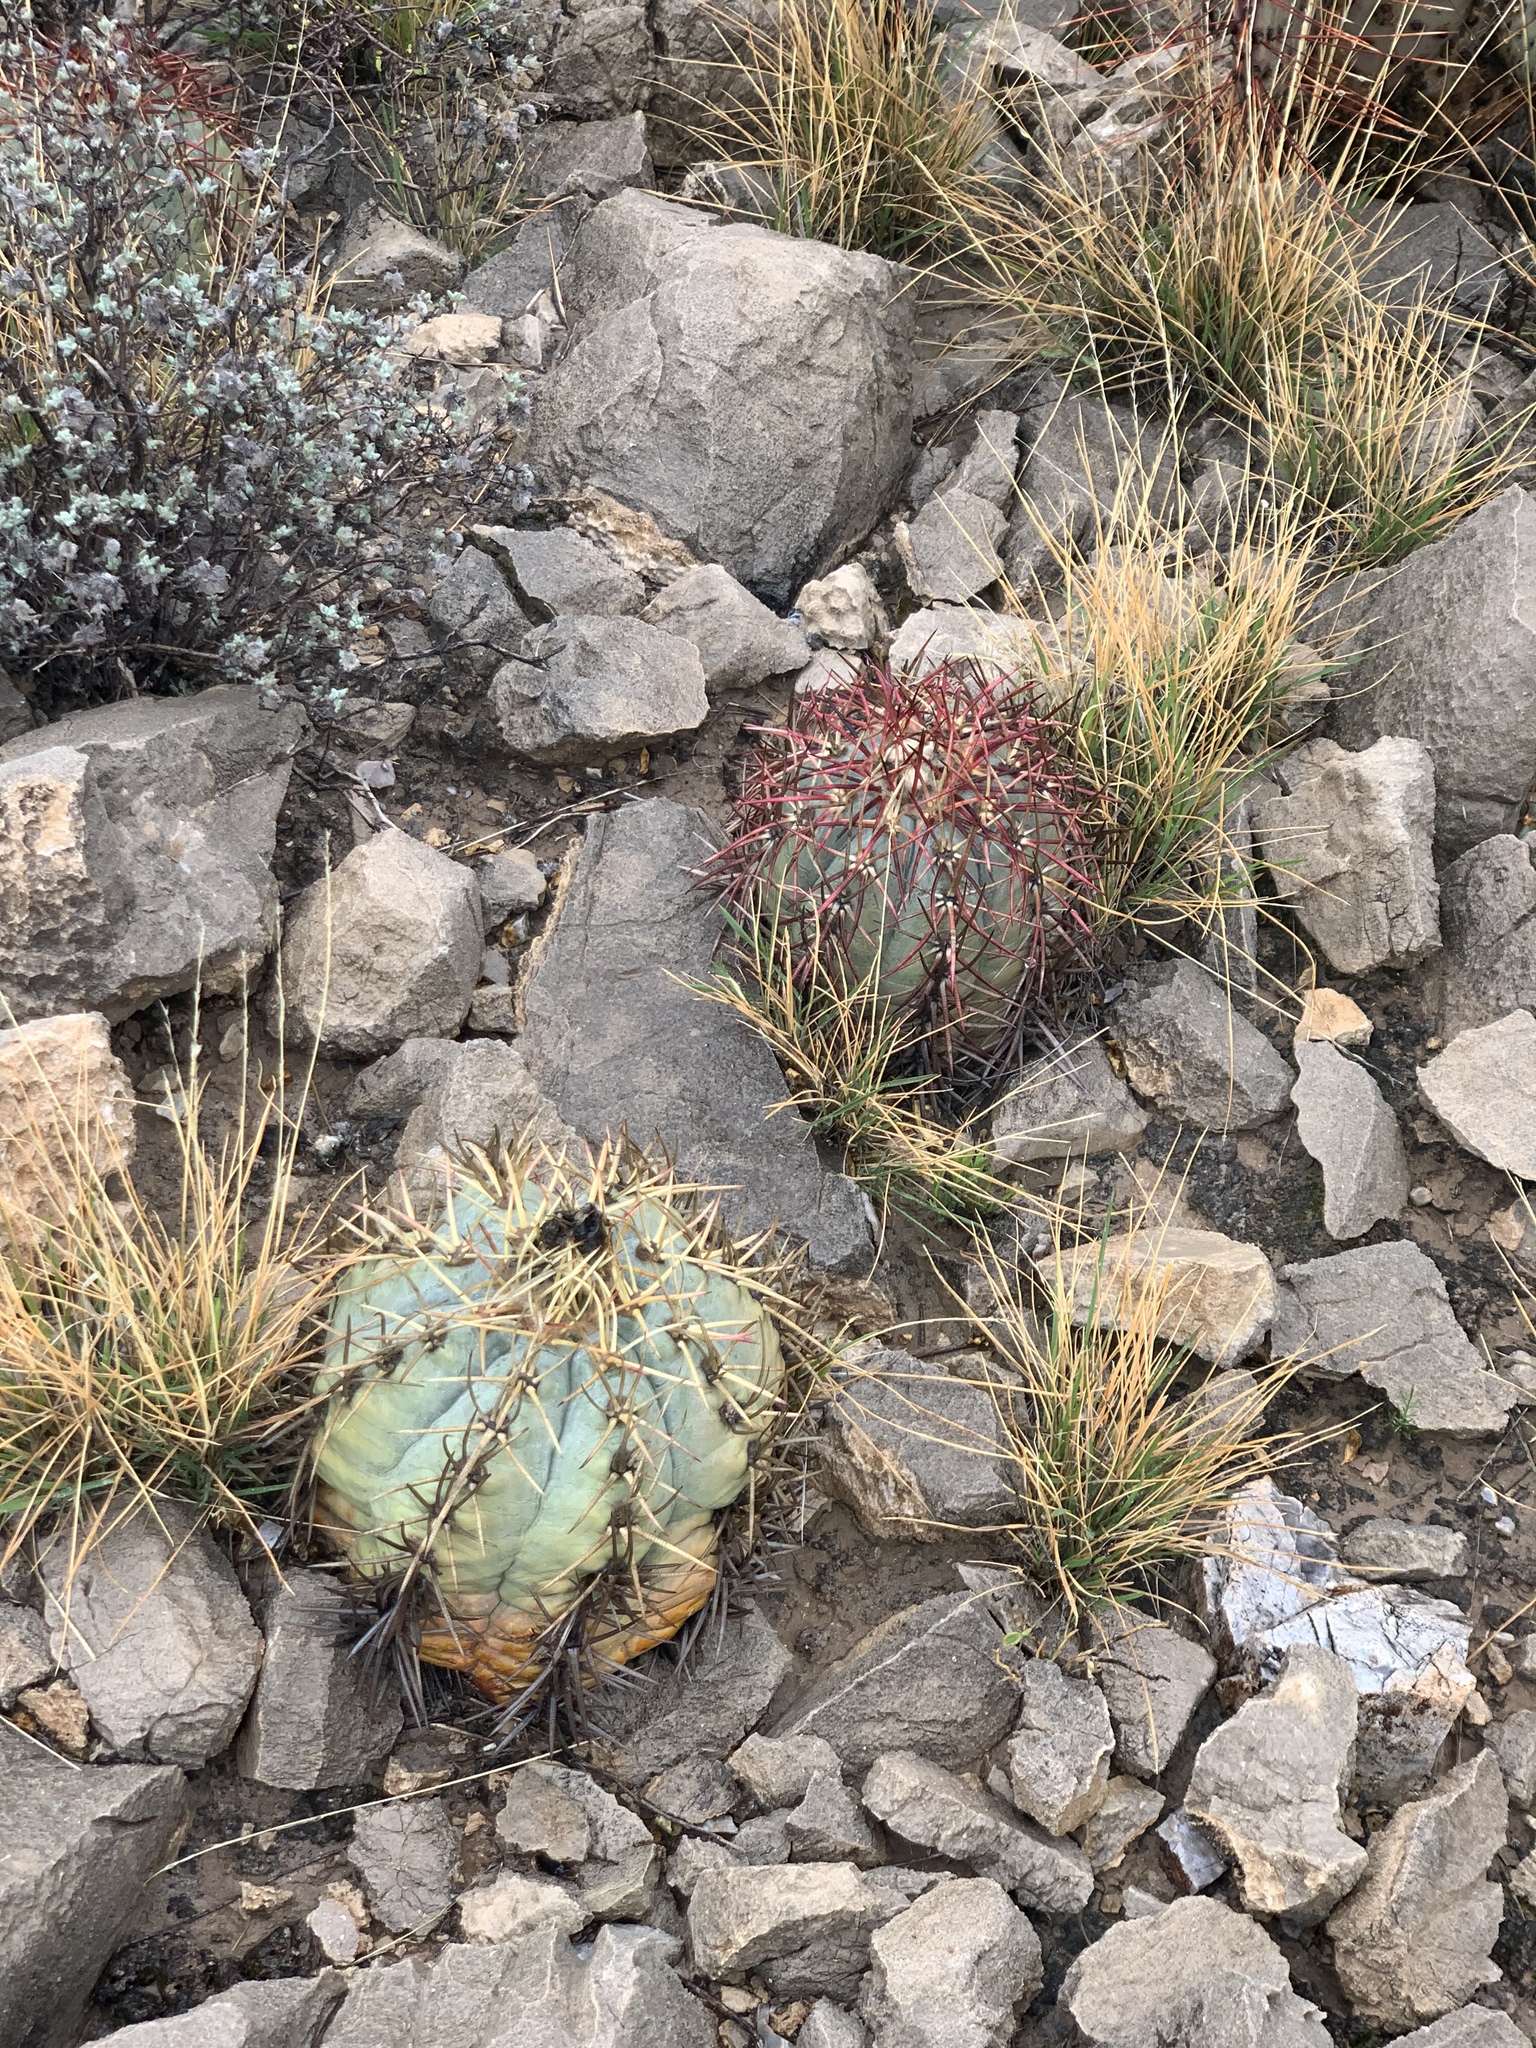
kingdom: Plantae
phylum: Tracheophyta
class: Magnoliopsida
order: Caryophyllales
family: Cactaceae
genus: Echinocactus
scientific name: Echinocactus horizonthalonius
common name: Devilshead
